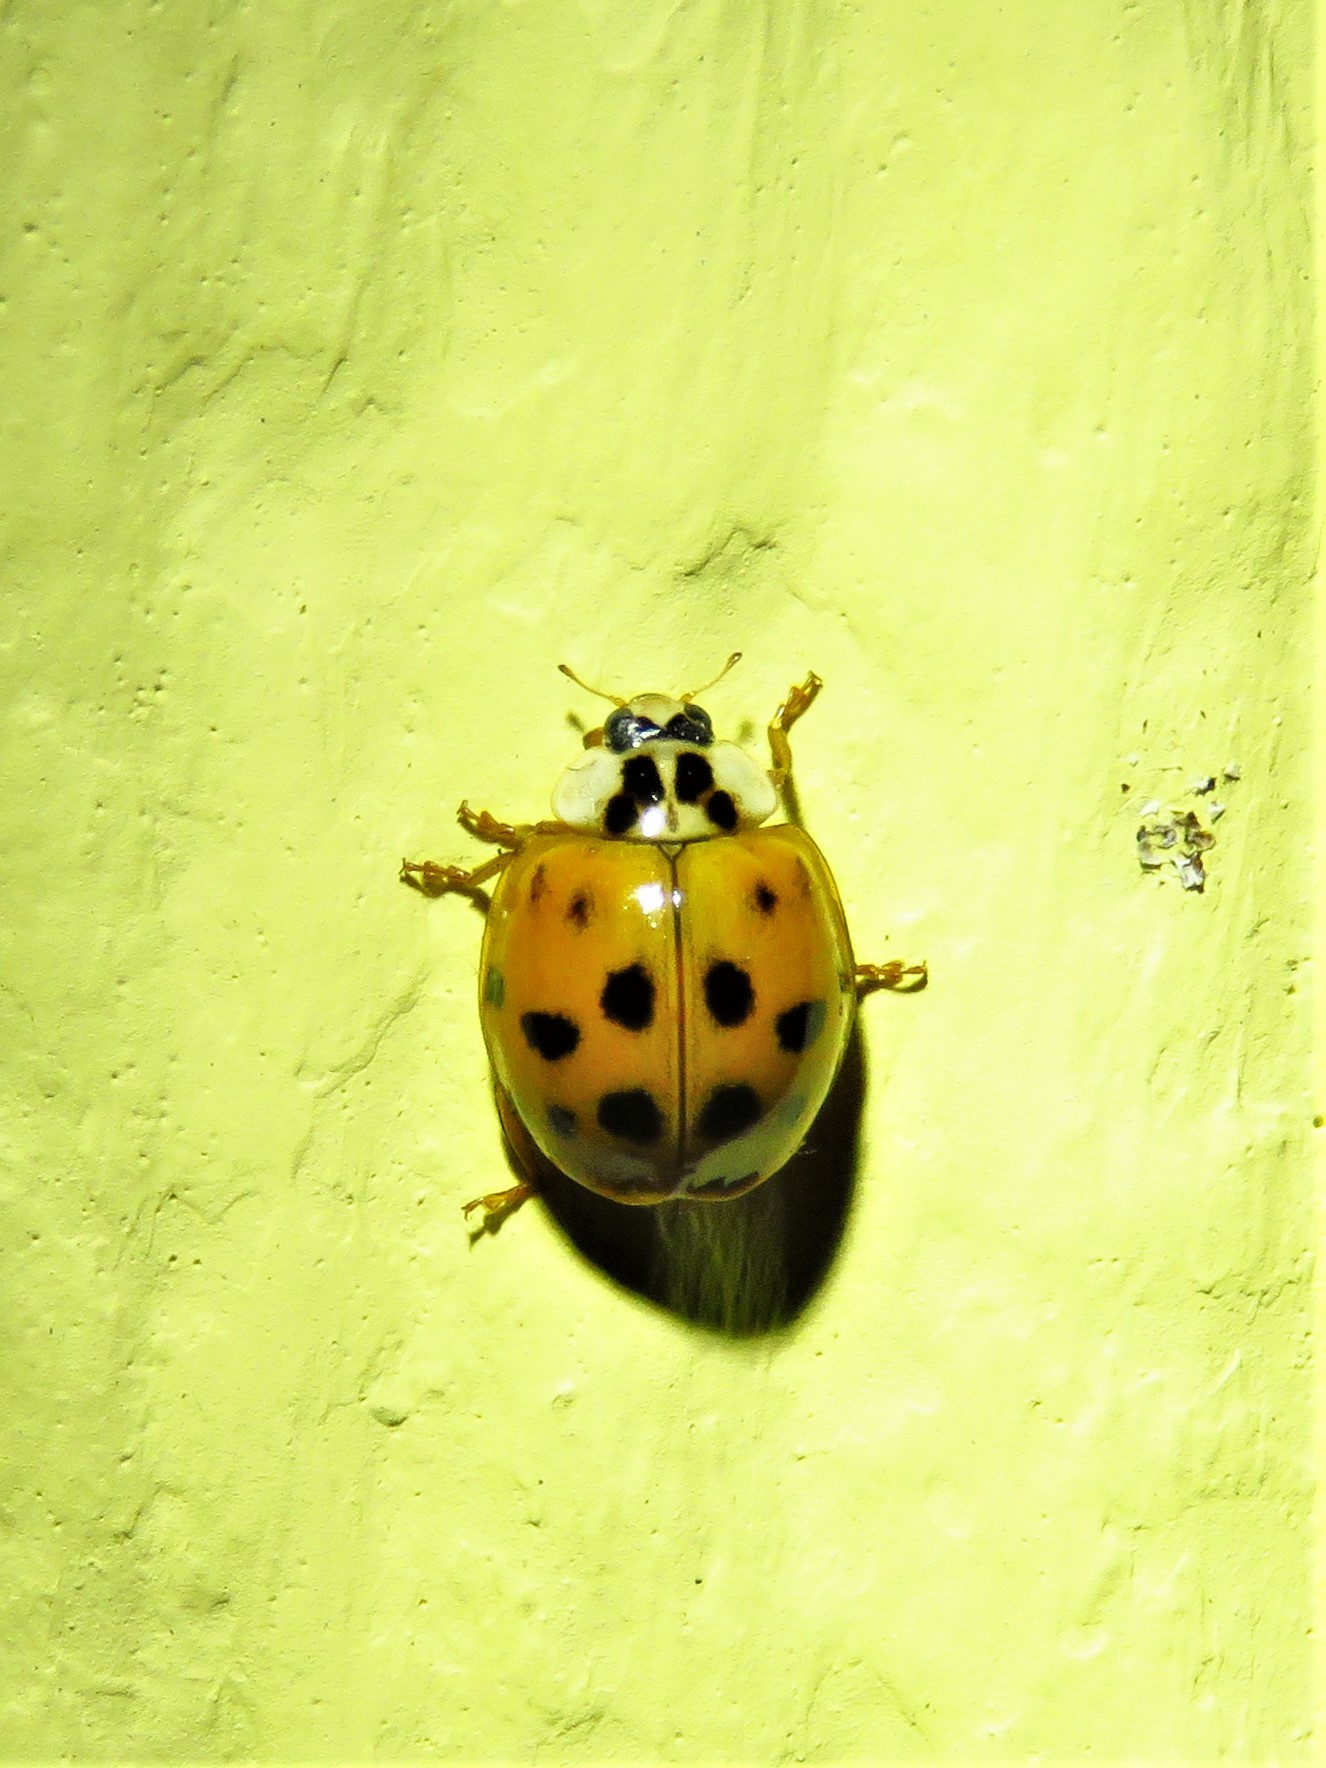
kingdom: Animalia
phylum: Arthropoda
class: Insecta
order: Coleoptera
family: Coccinellidae
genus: Harmonia
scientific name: Harmonia axyridis
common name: Harlequin ladybird
